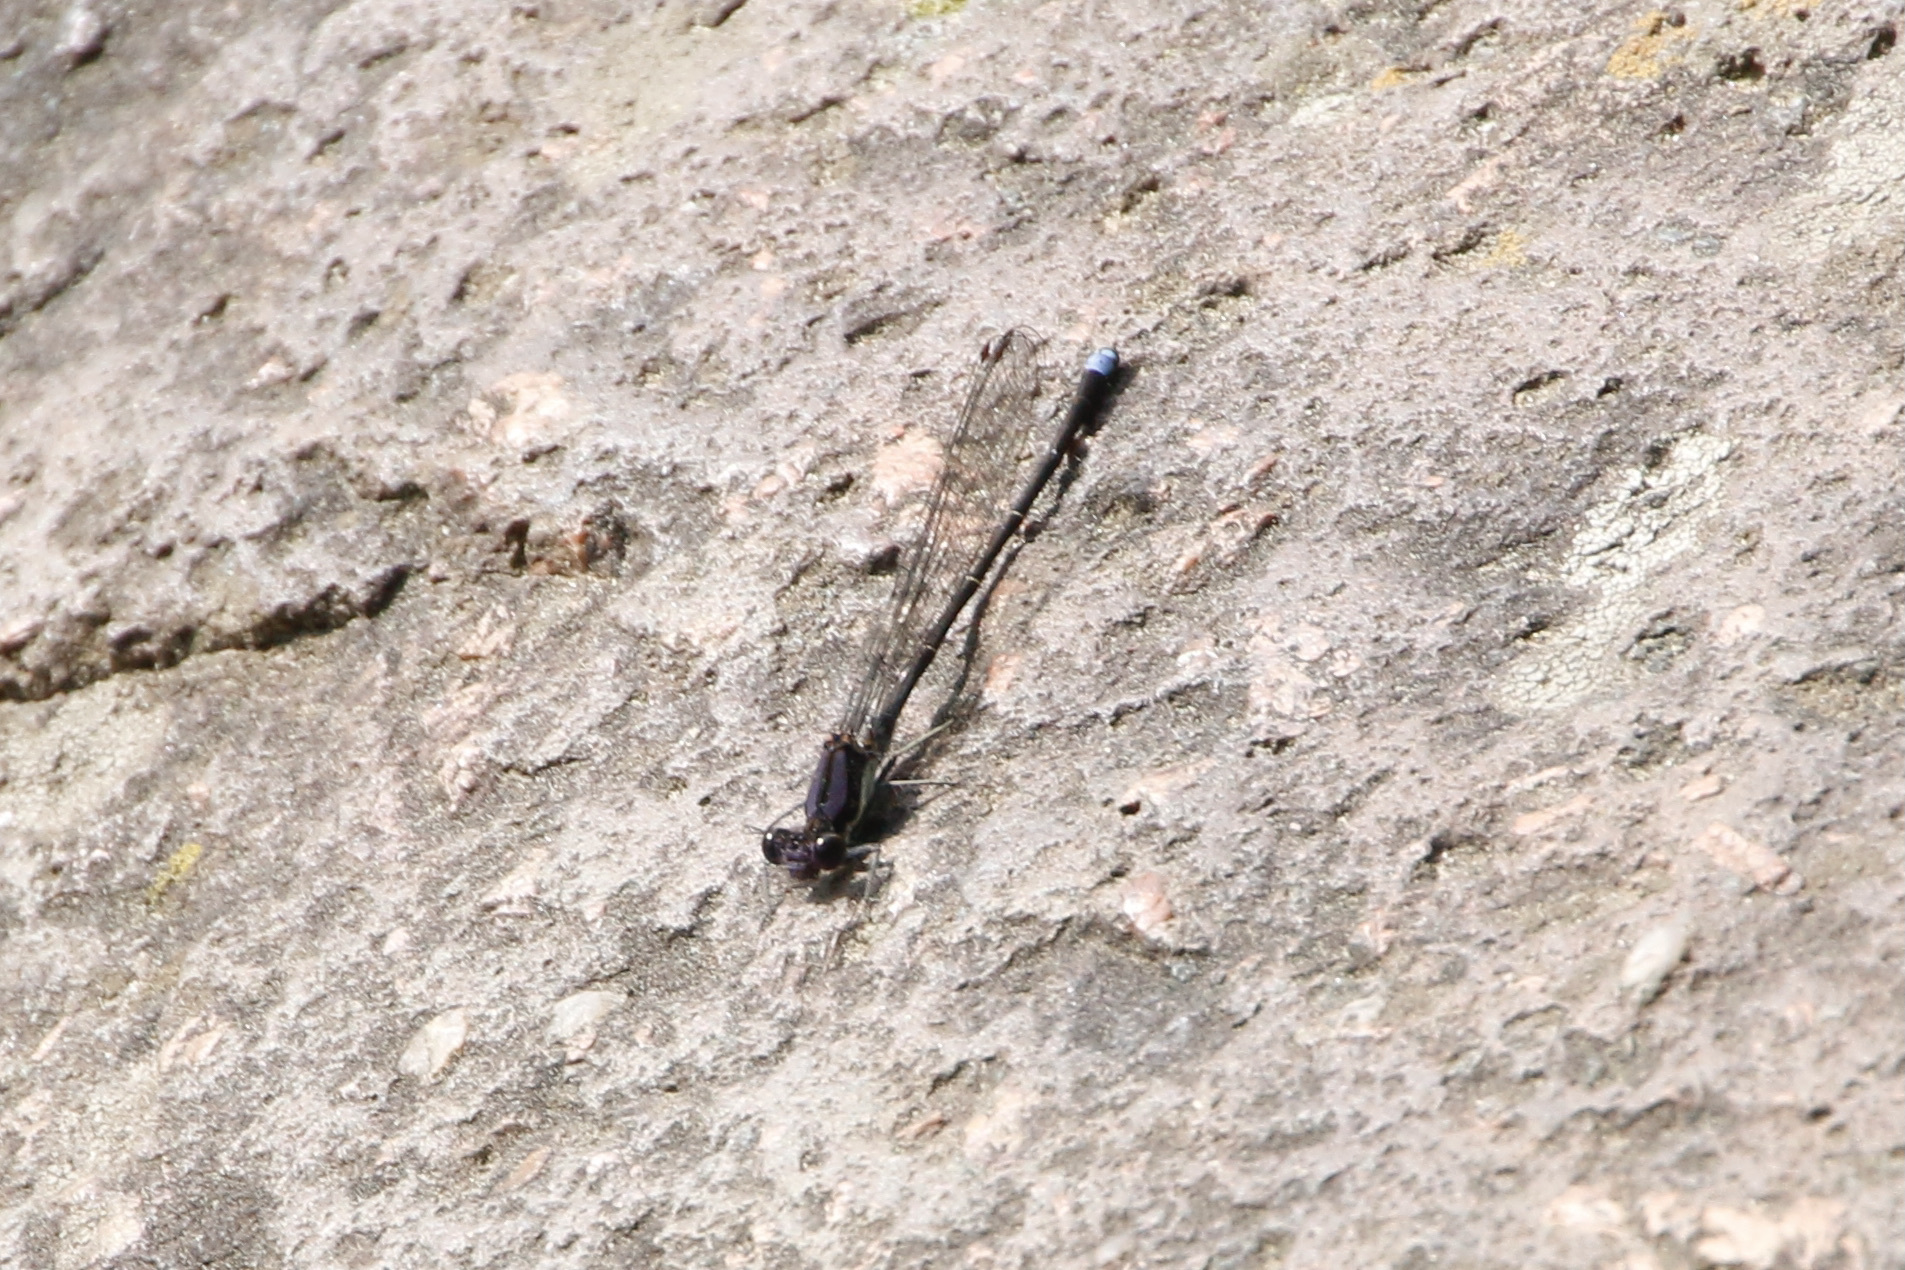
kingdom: Animalia
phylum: Arthropoda
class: Insecta
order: Odonata
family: Coenagrionidae
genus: Argia
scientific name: Argia tibialis
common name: Blue-tipped dancer
